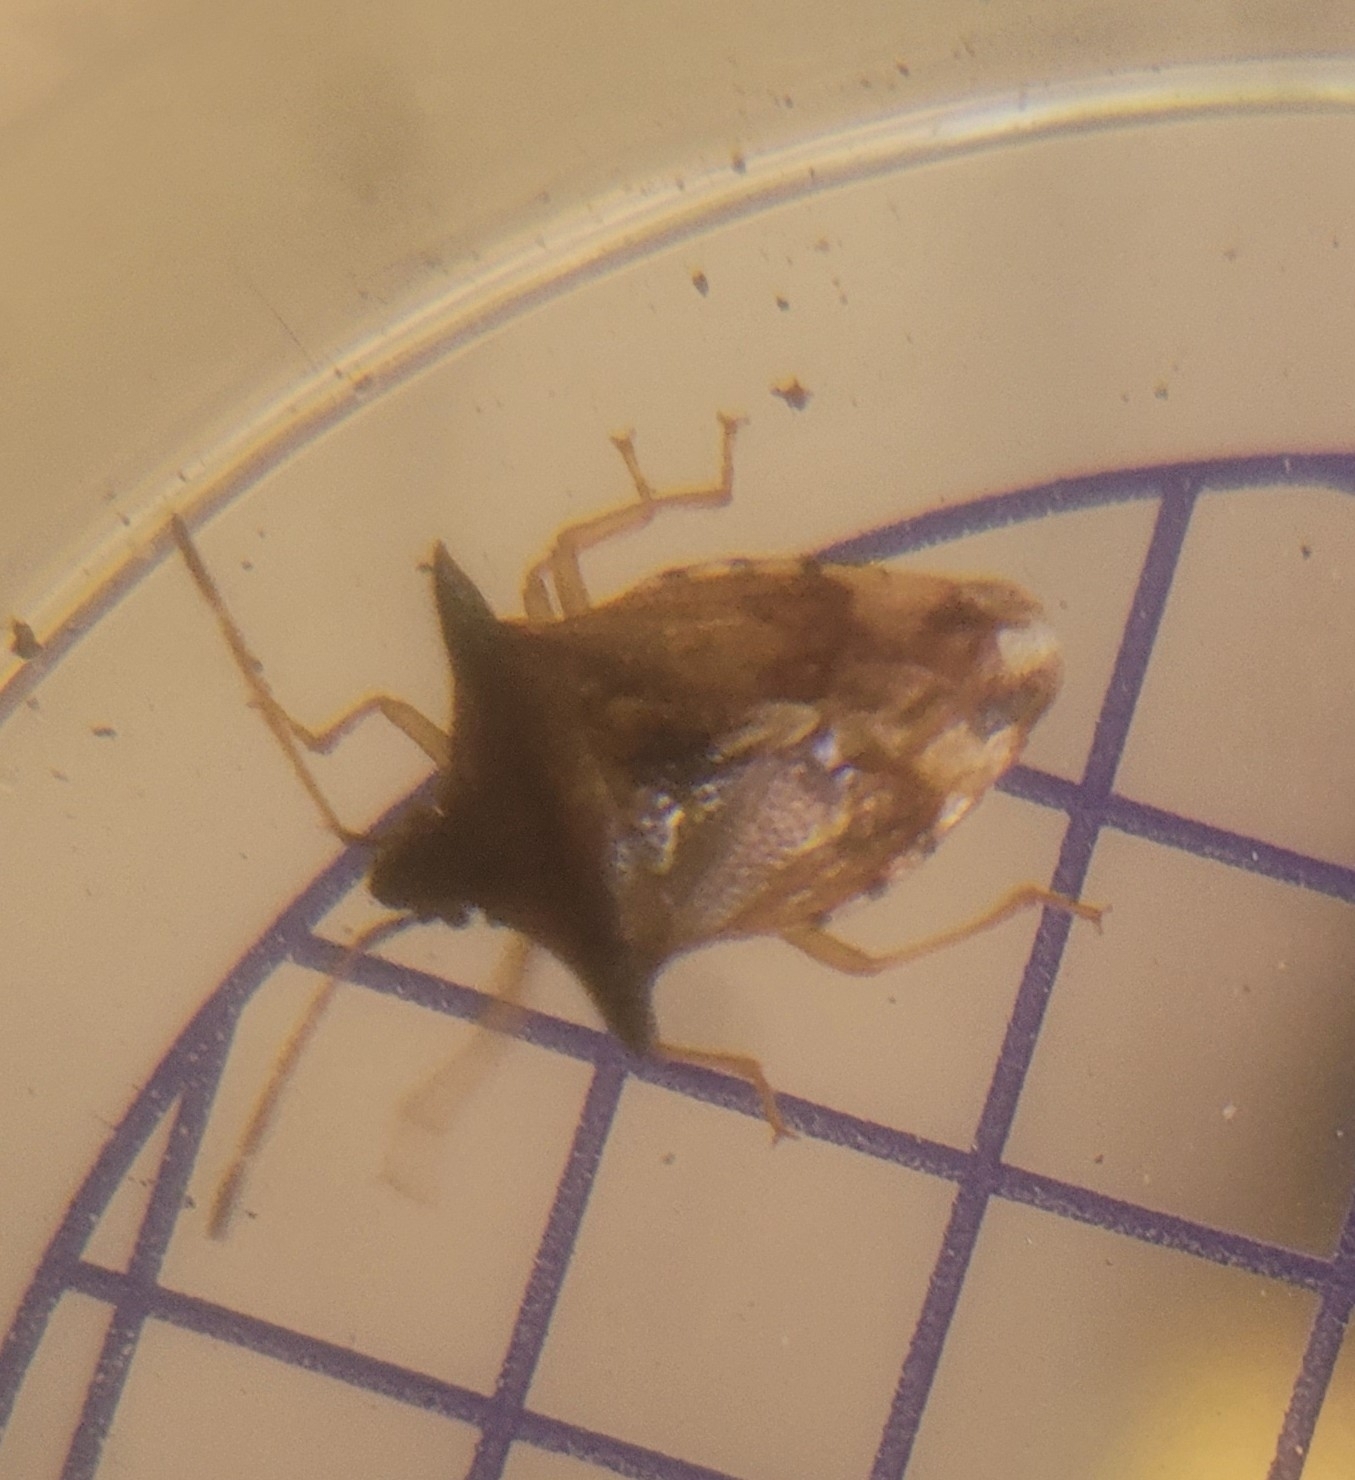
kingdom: Animalia
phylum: Arthropoda
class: Insecta
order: Hemiptera
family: Acanthosomatidae
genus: Elasmucha
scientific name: Elasmucha ferrugata
